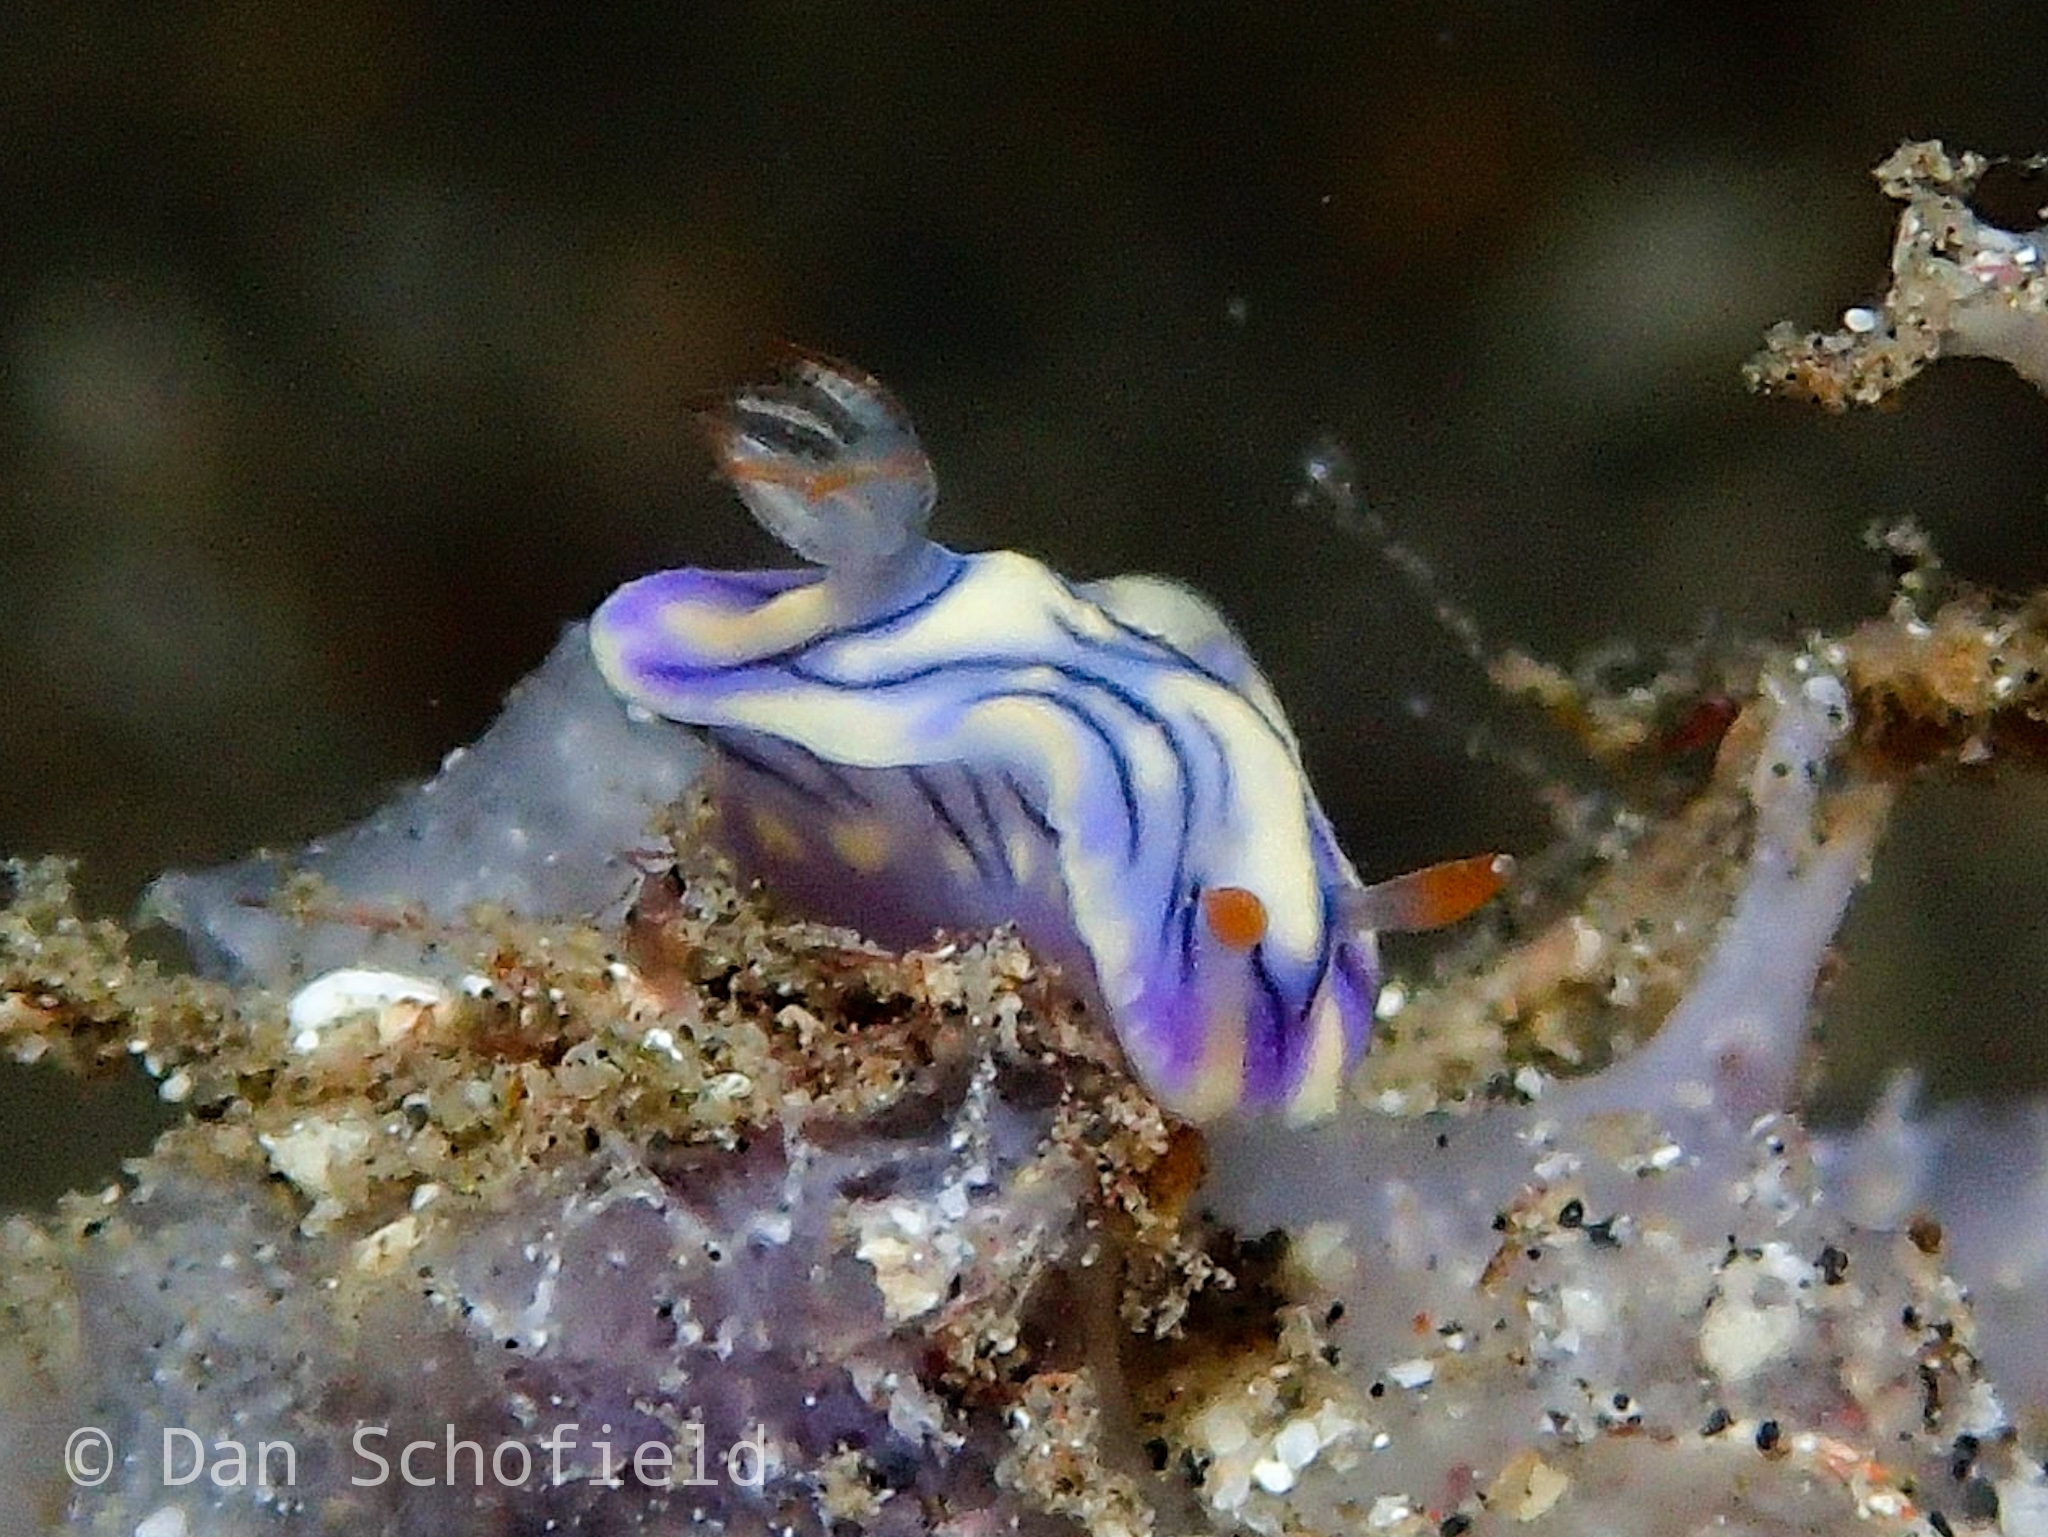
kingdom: Animalia
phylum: Mollusca
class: Gastropoda
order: Nudibranchia
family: Chromodorididae
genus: Hypselodoris
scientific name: Hypselodoris zephyra
